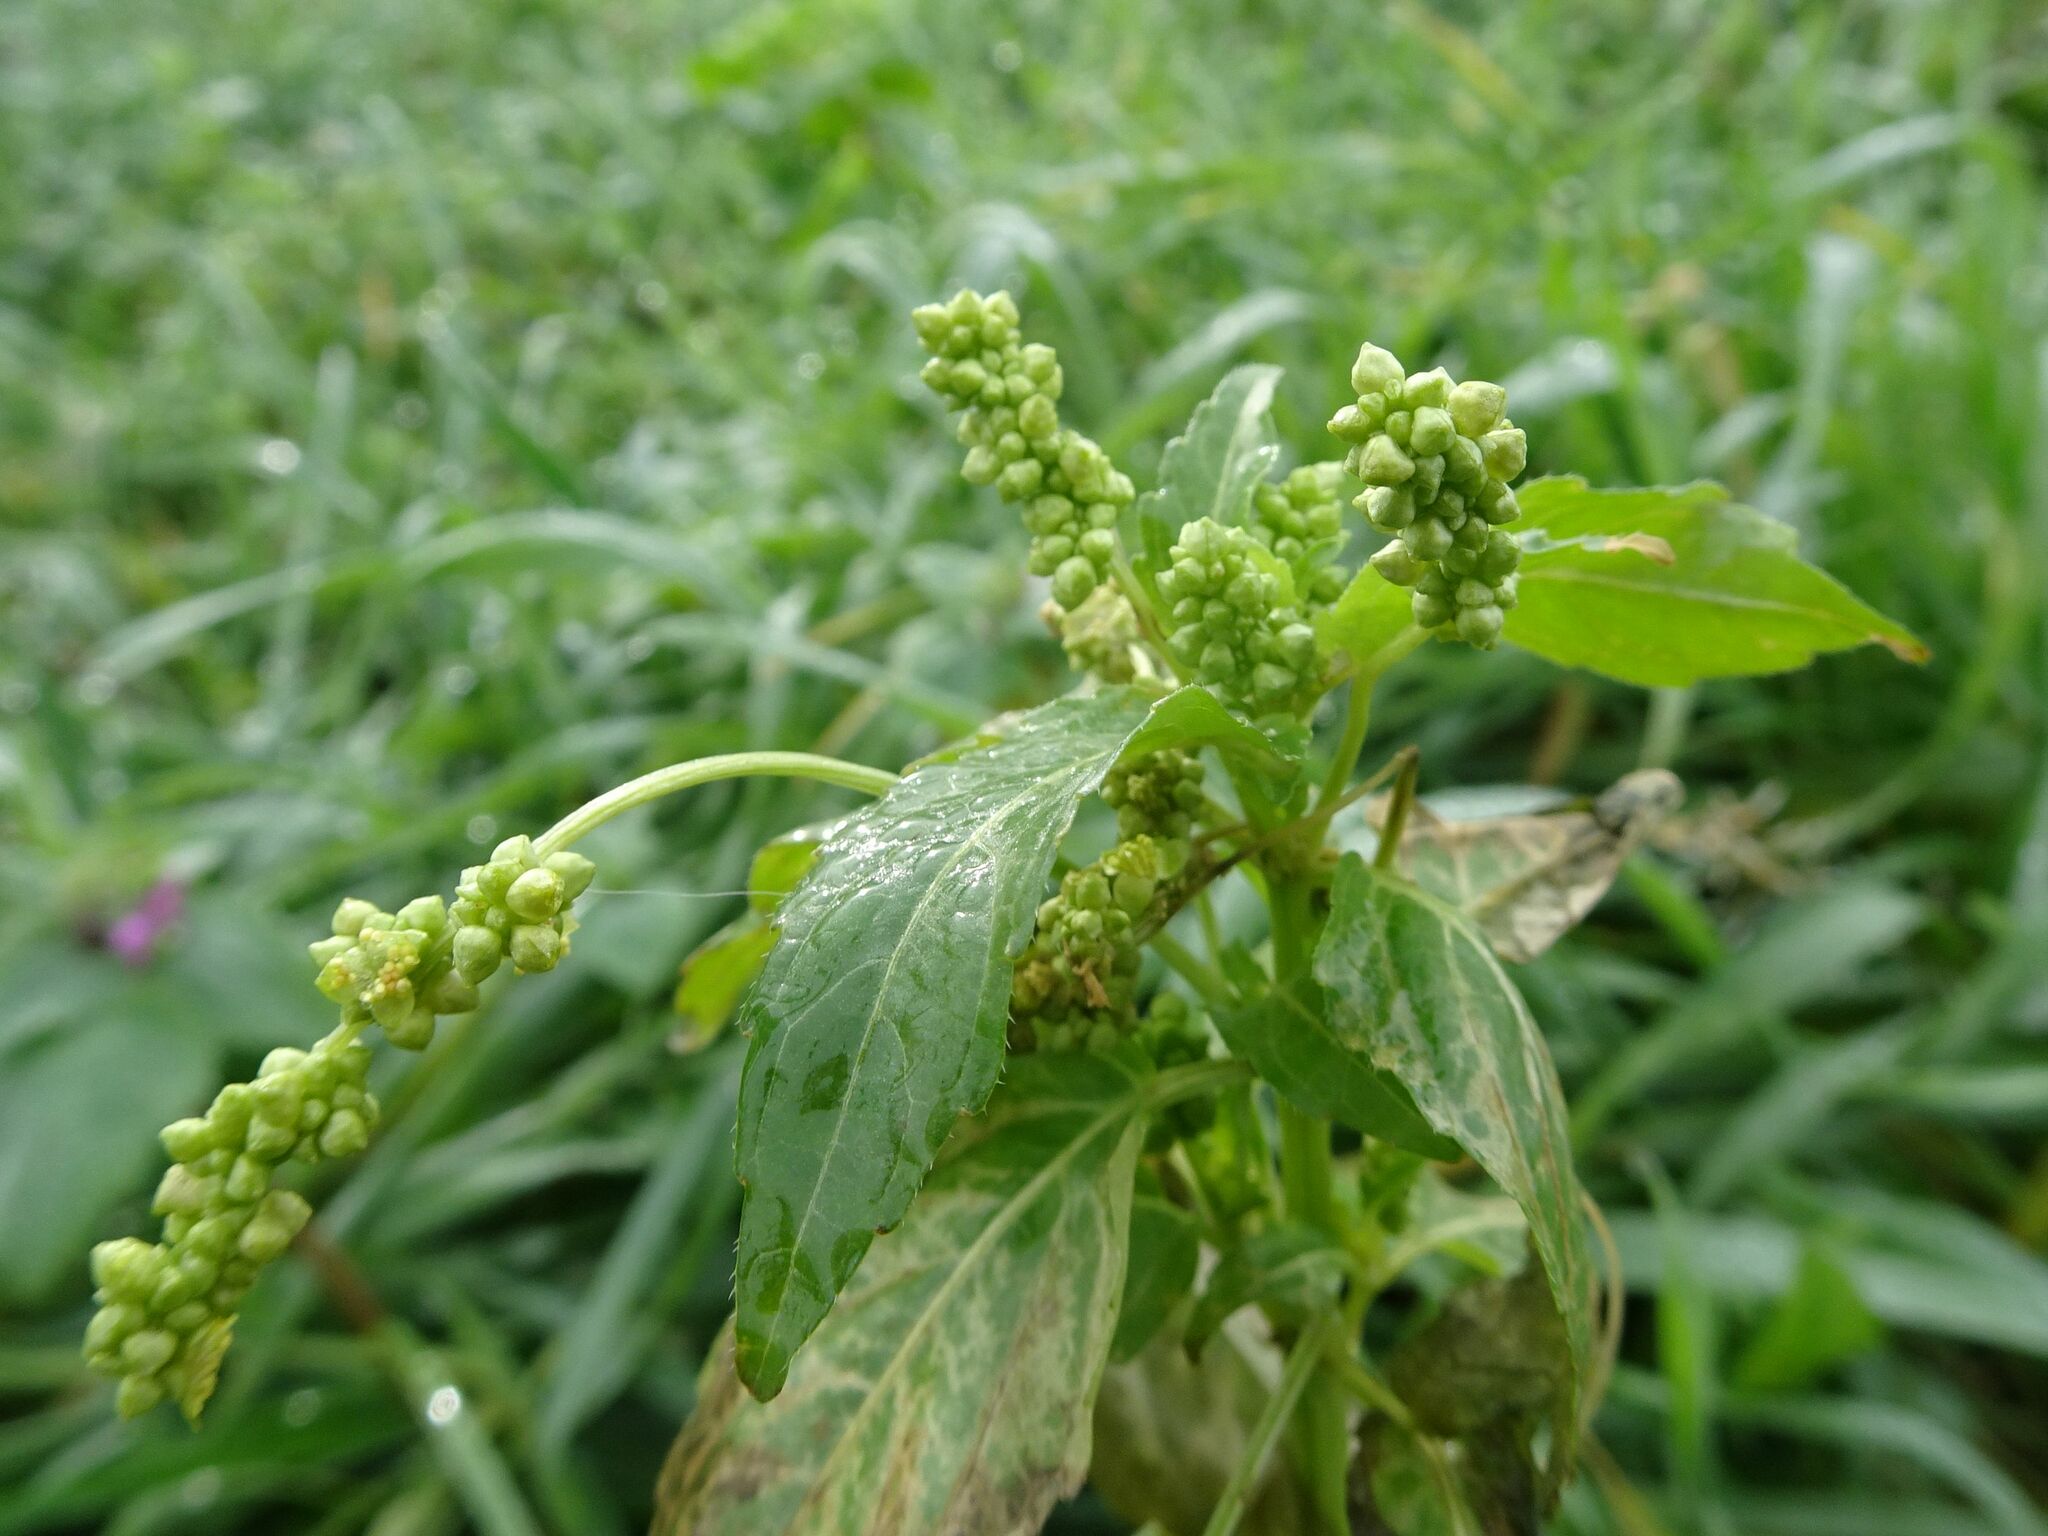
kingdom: Plantae
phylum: Tracheophyta
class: Magnoliopsida
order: Malpighiales
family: Euphorbiaceae
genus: Mercurialis
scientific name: Mercurialis annua
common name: Annual mercury
